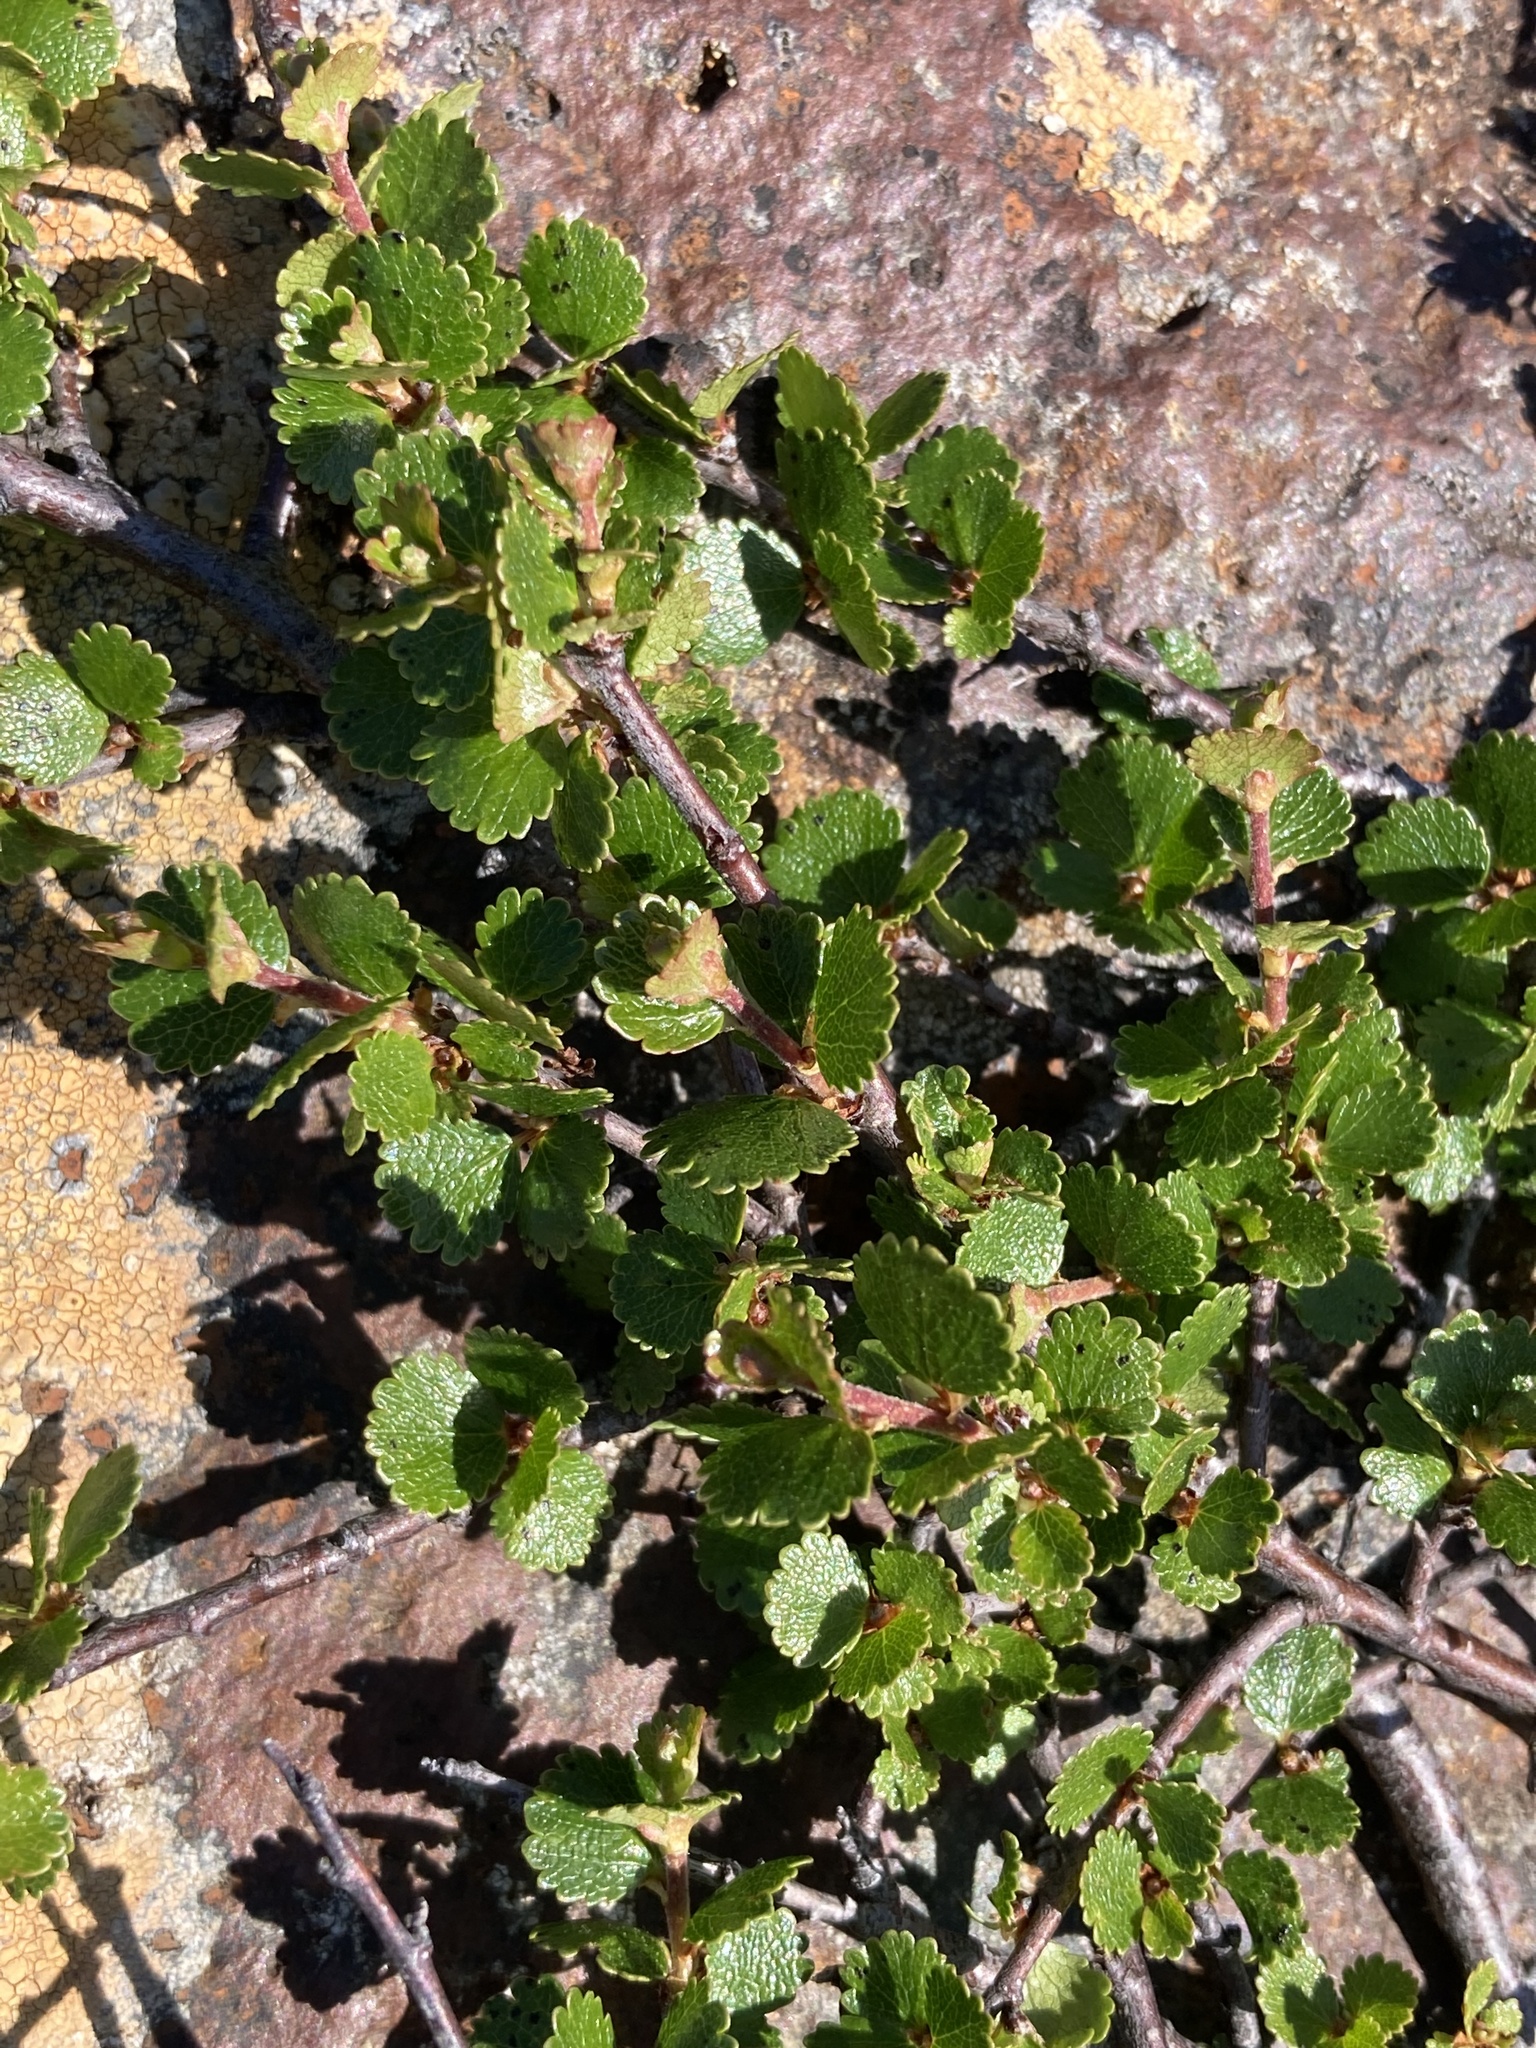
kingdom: Plantae
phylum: Tracheophyta
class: Magnoliopsida
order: Fagales
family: Betulaceae
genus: Betula
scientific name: Betula nana
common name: Arctic dwarf birch
